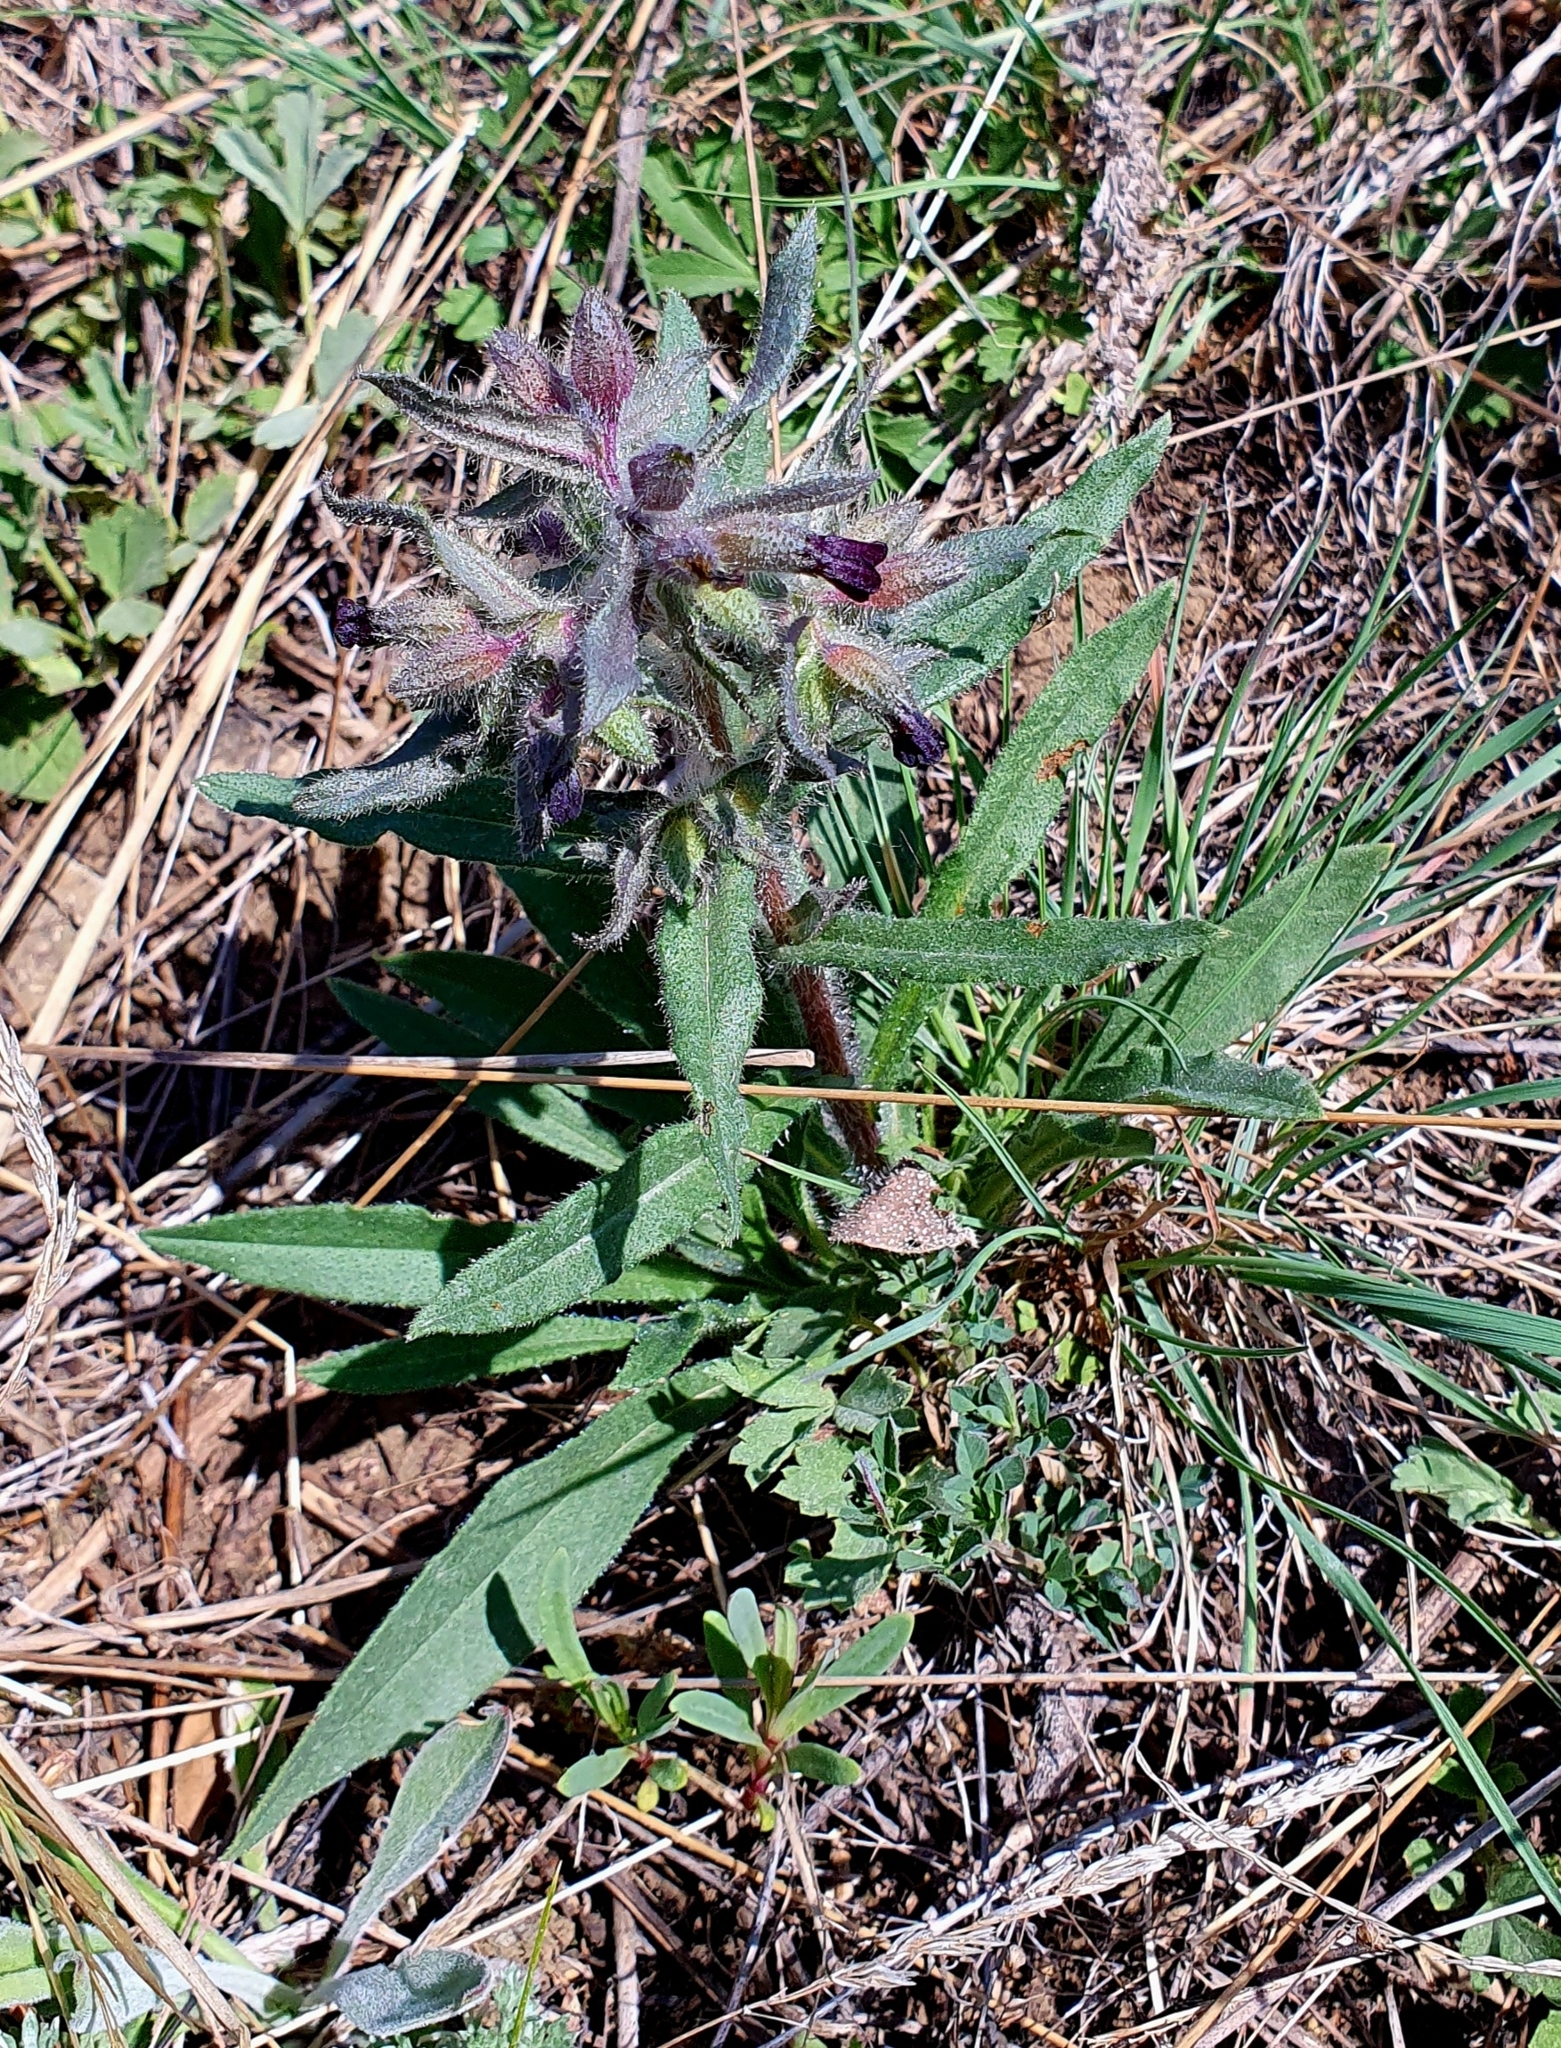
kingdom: Plantae
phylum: Tracheophyta
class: Magnoliopsida
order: Boraginales
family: Boraginaceae
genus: Nonea
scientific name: Nonea pulla
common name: Brown nonea
